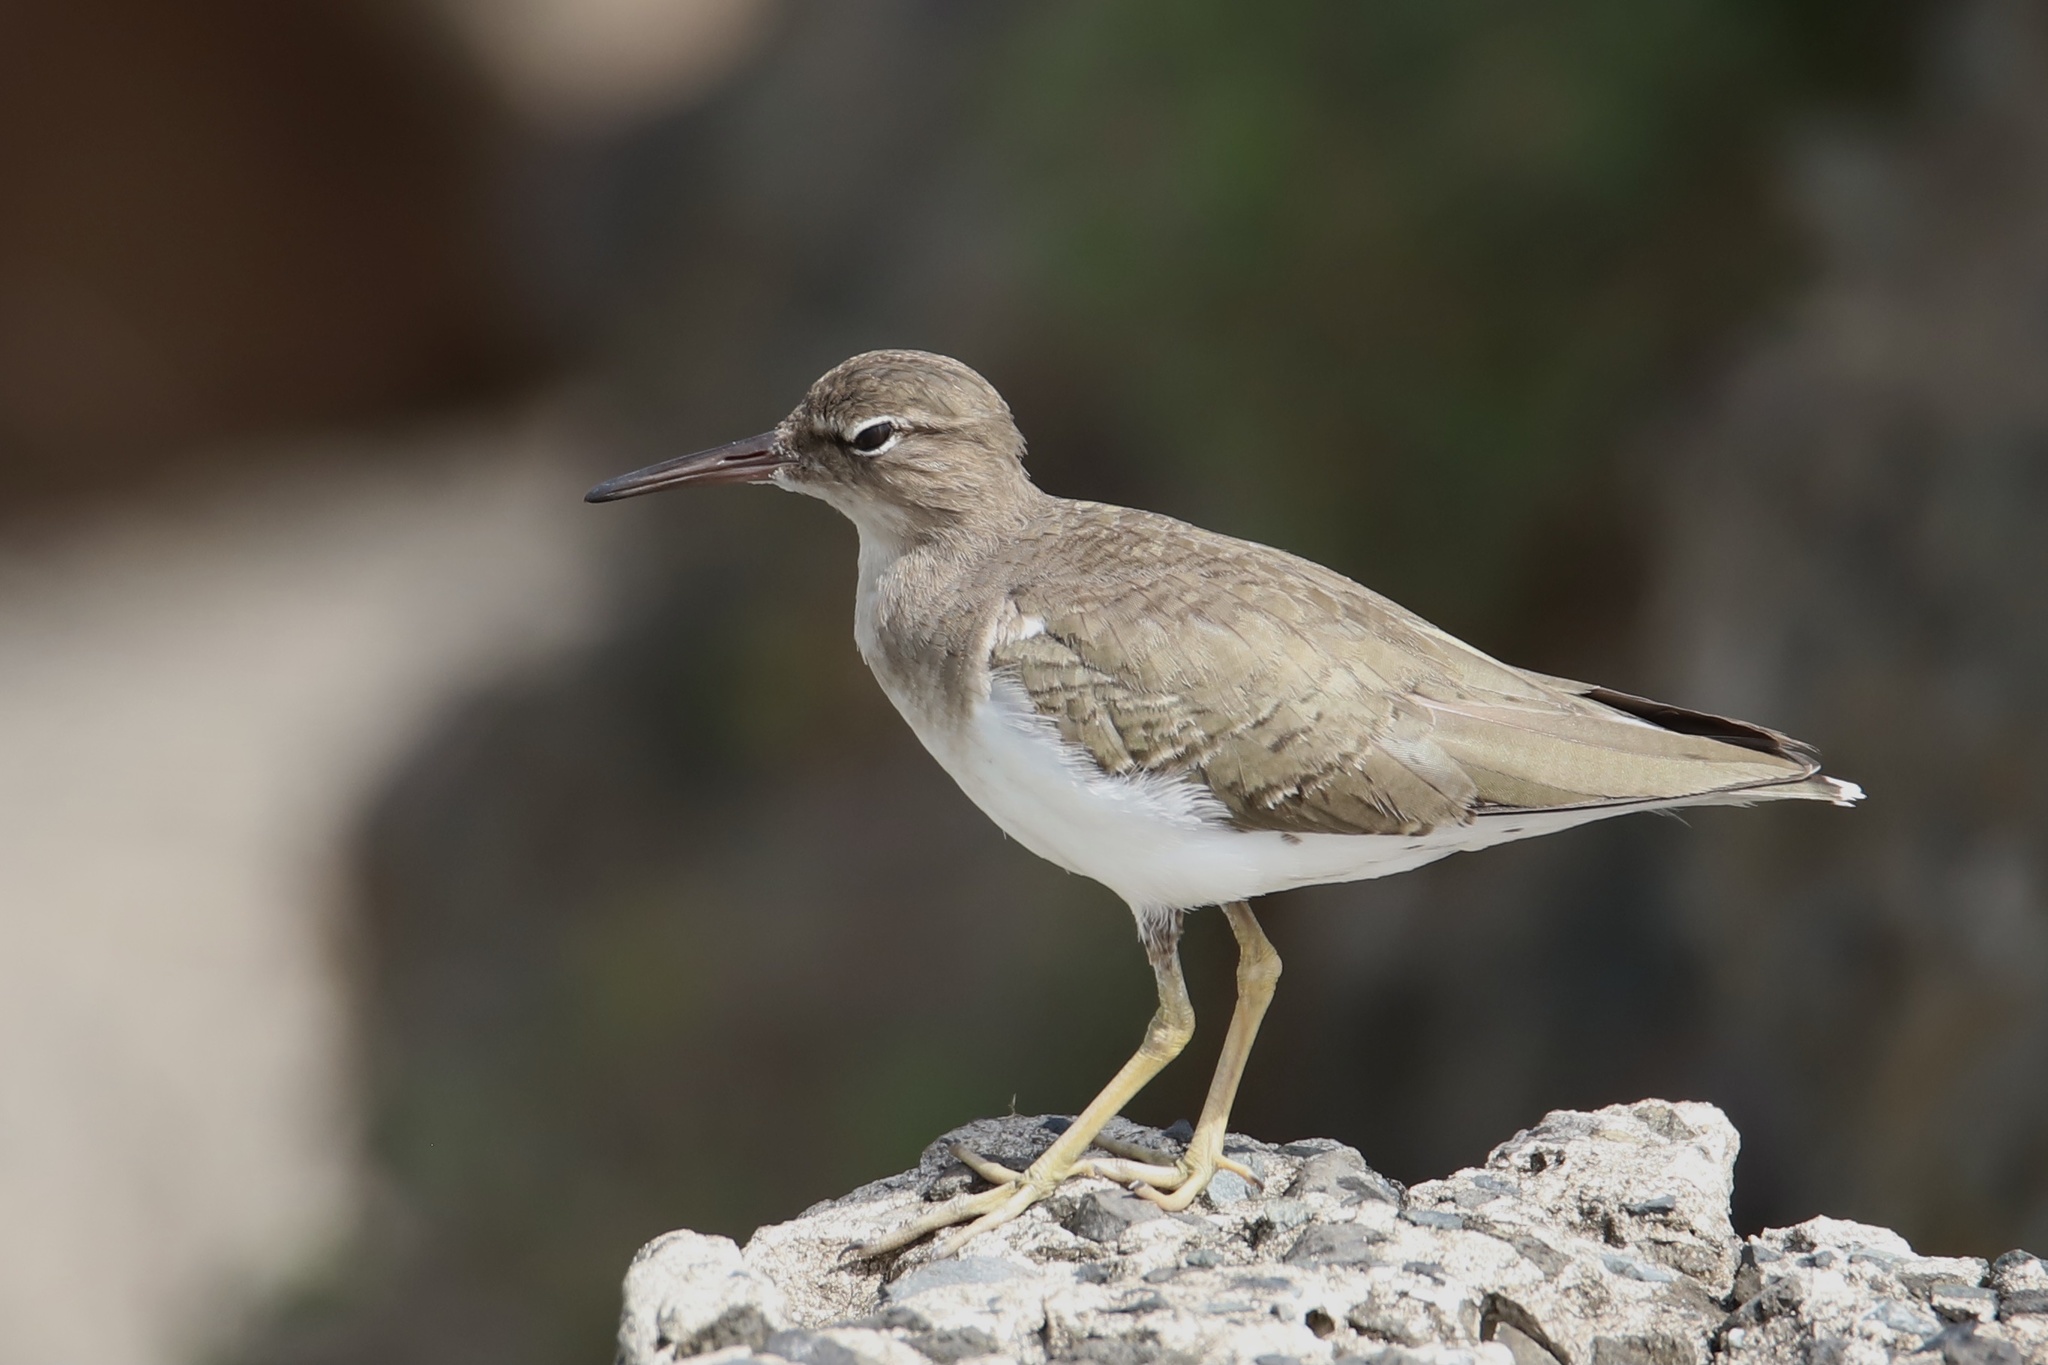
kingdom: Animalia
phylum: Chordata
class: Aves
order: Charadriiformes
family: Scolopacidae
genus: Actitis
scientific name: Actitis macularius
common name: Spotted sandpiper
